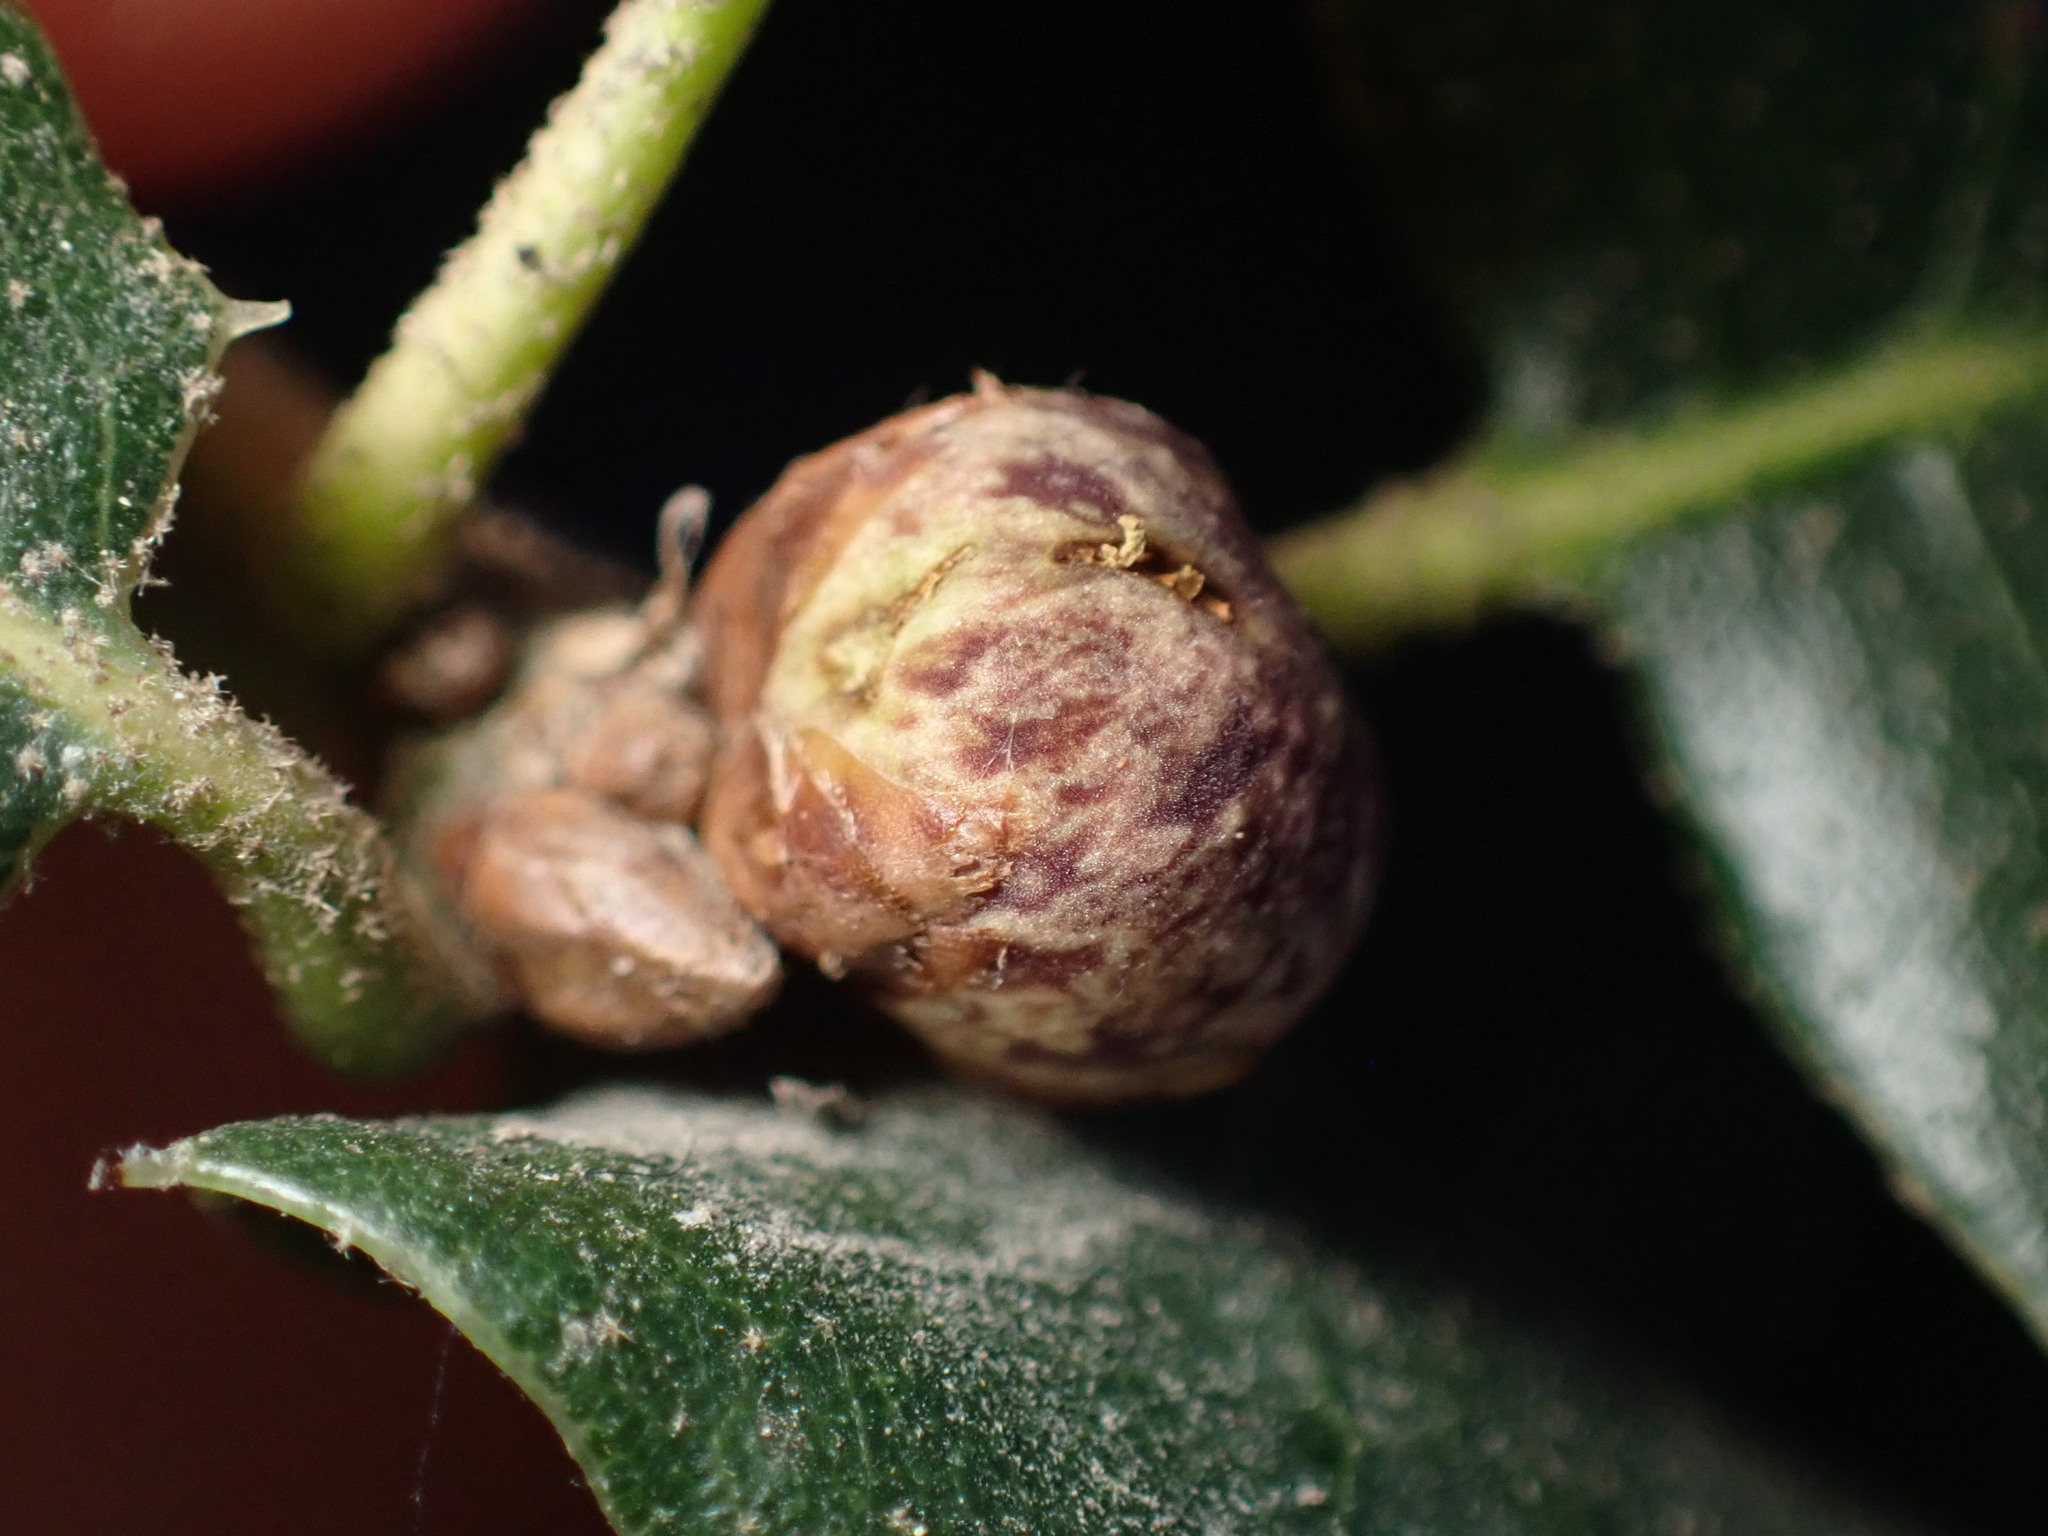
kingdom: Animalia
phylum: Arthropoda
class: Insecta
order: Hymenoptera
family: Cynipidae
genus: Callirhytis
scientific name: Callirhytis
